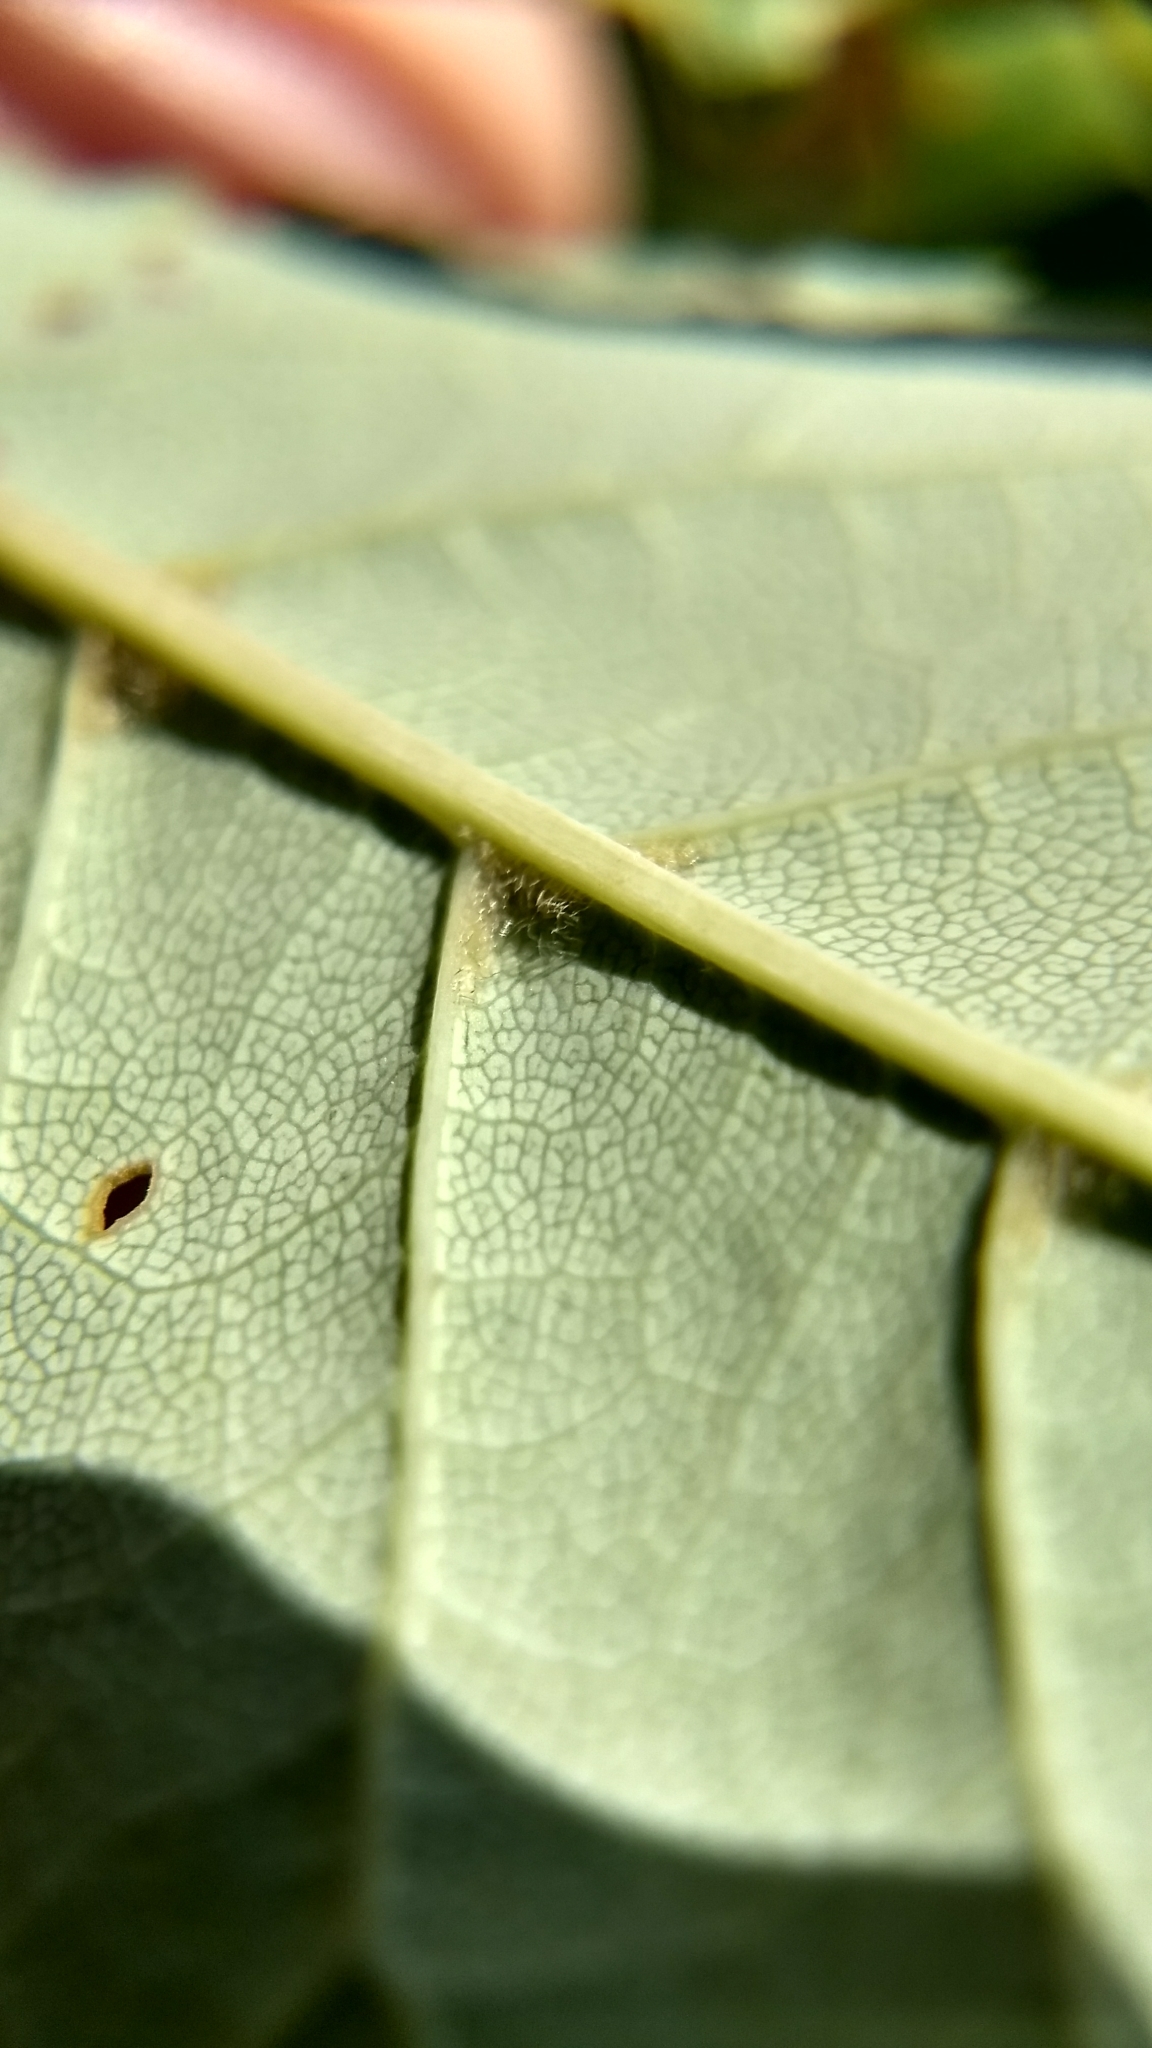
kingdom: Plantae
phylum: Tracheophyta
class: Magnoliopsida
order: Rosales
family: Rosaceae
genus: Prunus
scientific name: Prunus virginiana
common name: Chokecherry
